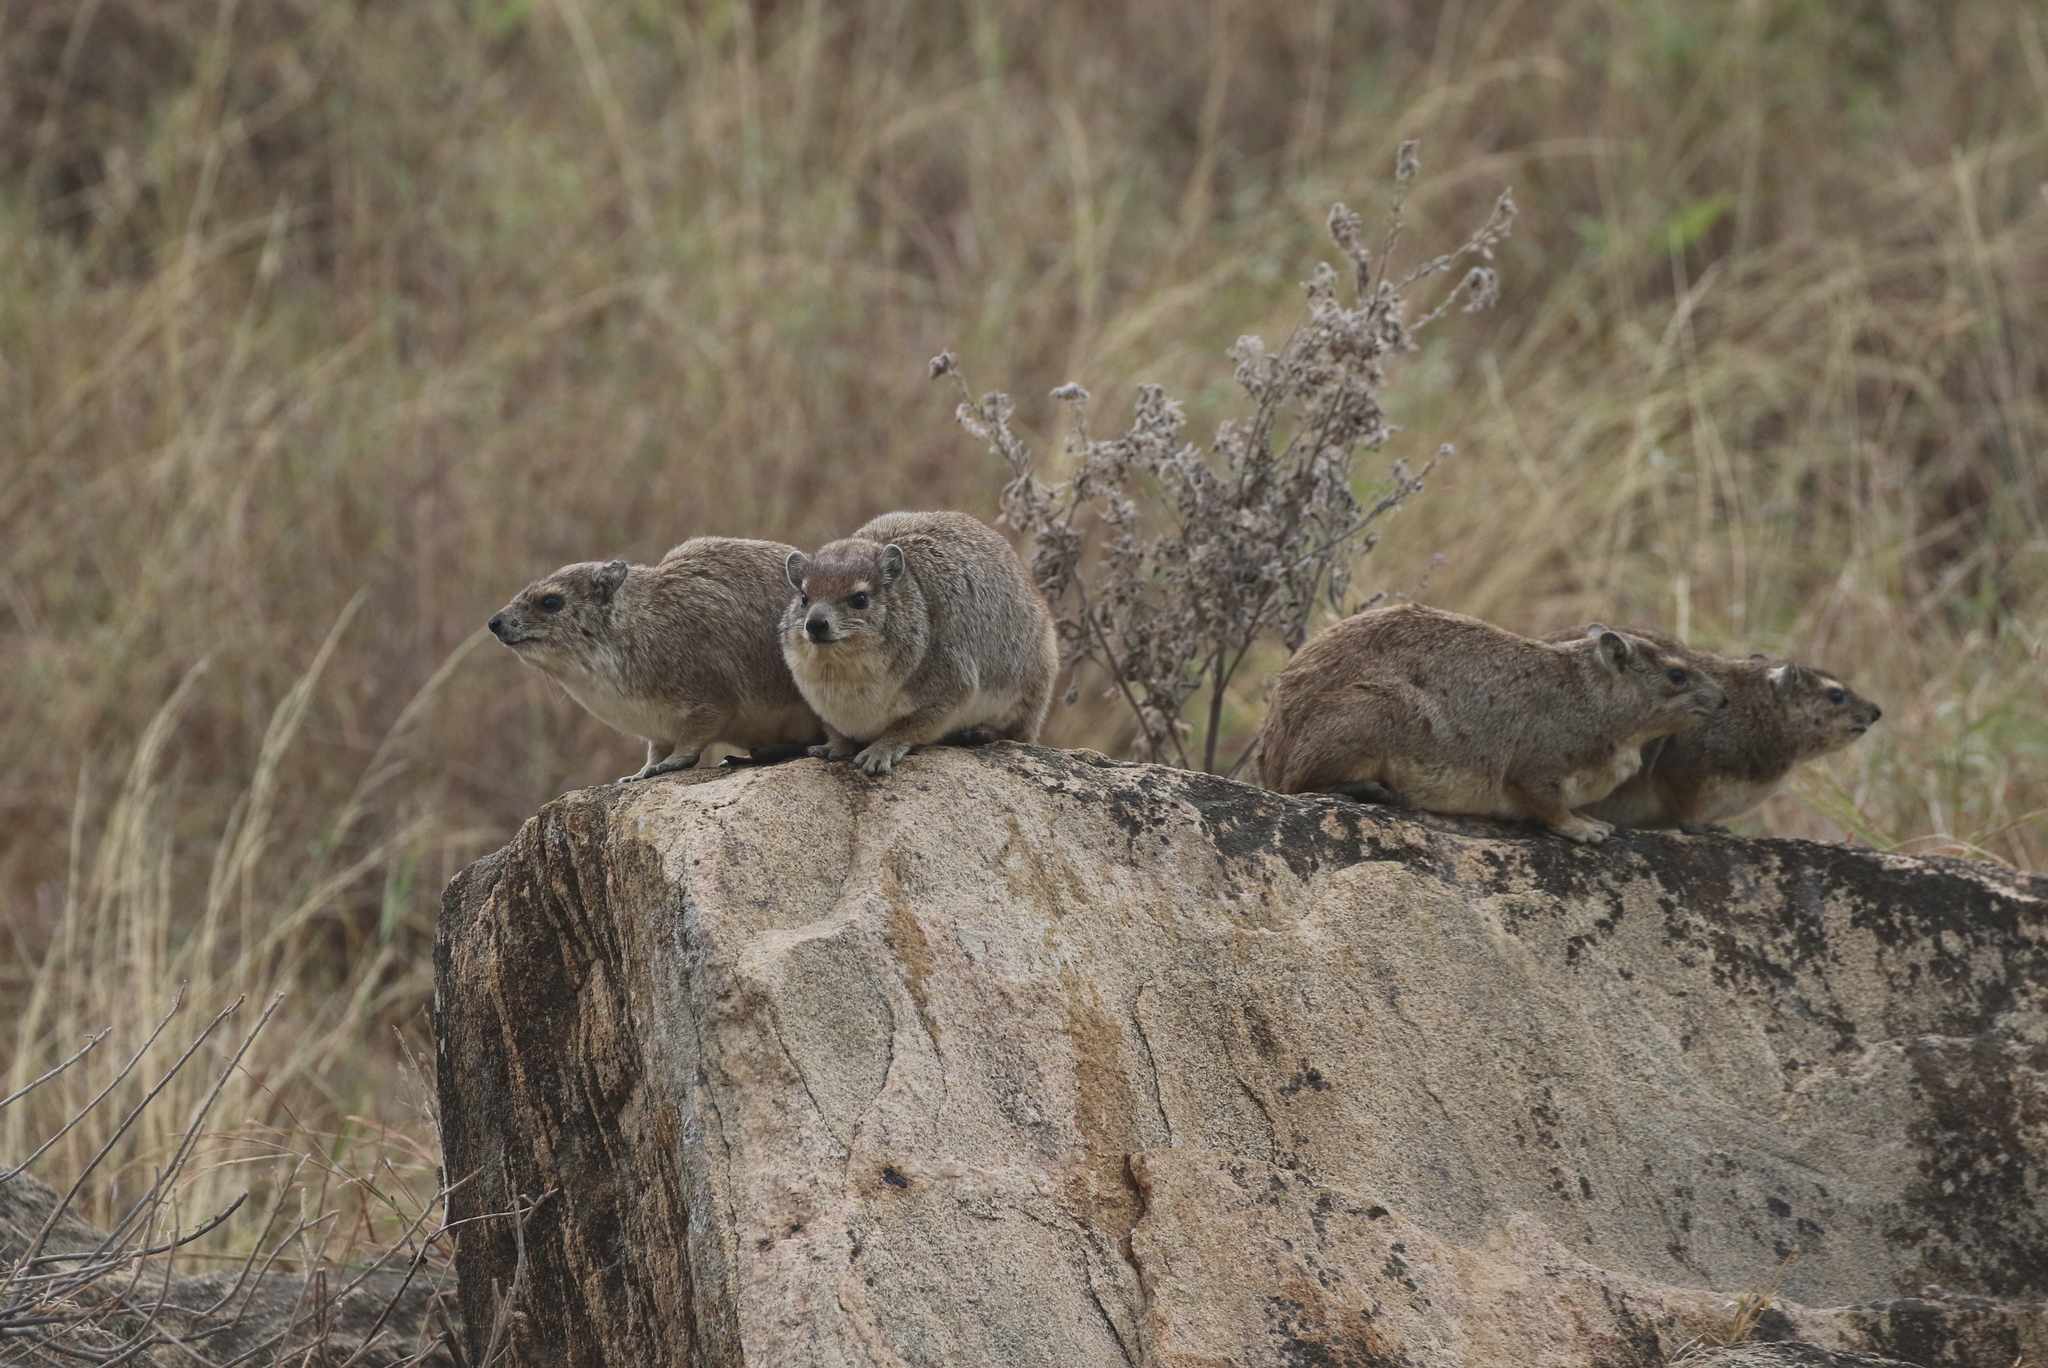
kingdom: Animalia
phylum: Chordata
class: Mammalia
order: Hyracoidea
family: Procaviidae
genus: Heterohyrax
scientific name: Heterohyrax brucei
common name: Bush hyrax
